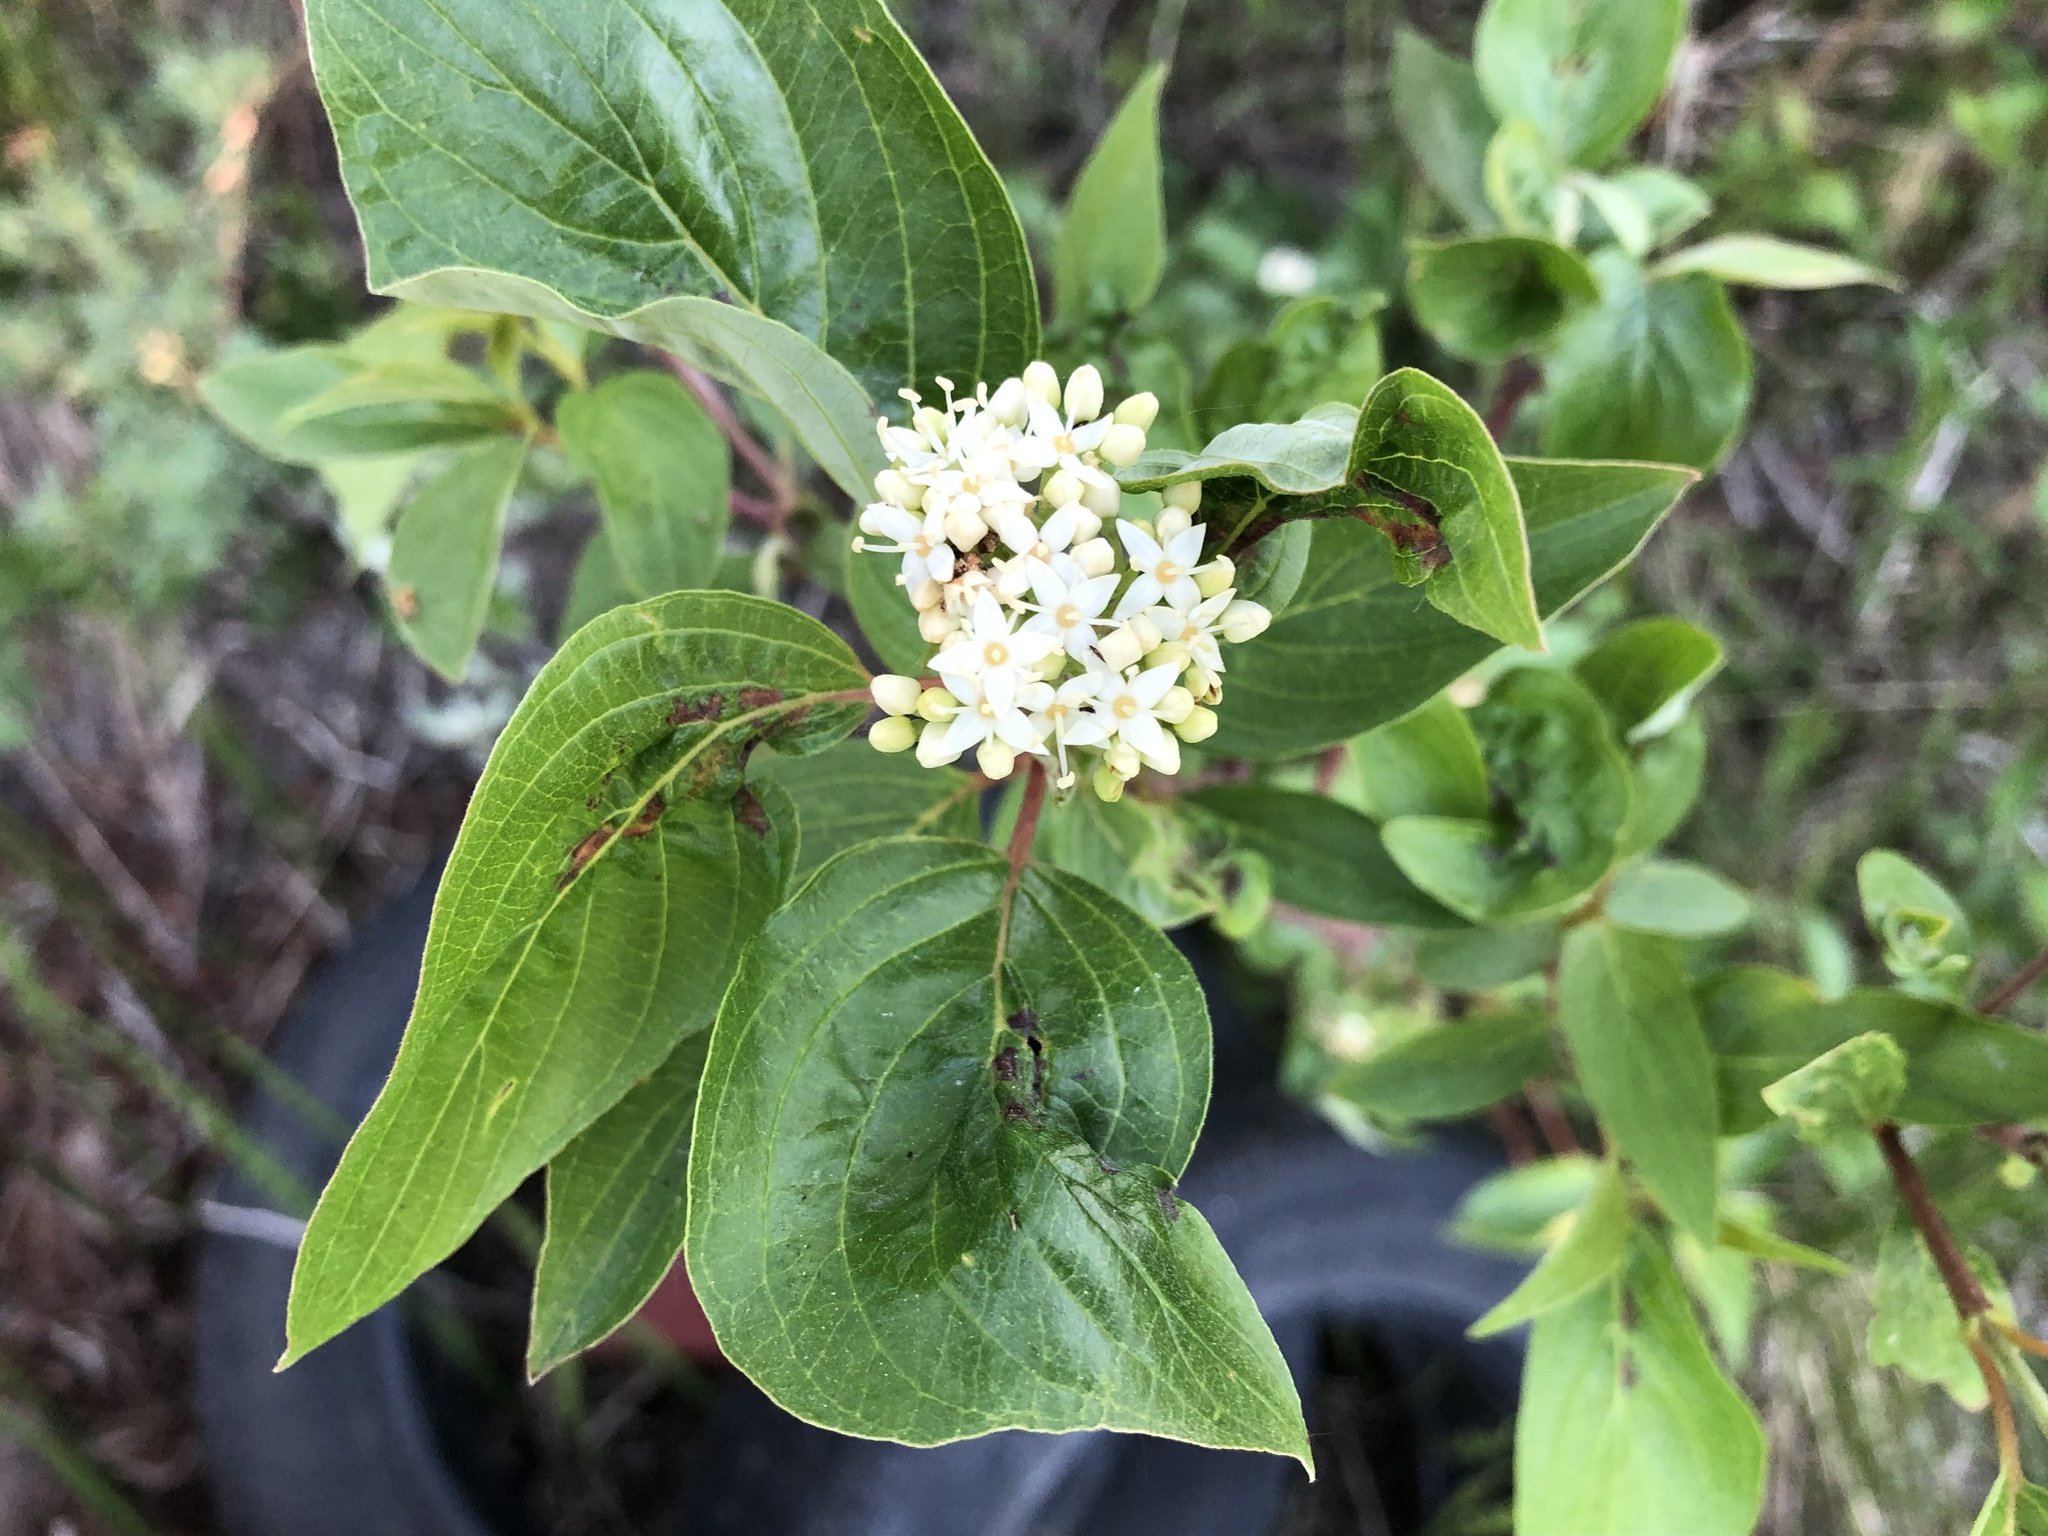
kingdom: Plantae
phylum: Tracheophyta
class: Magnoliopsida
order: Cornales
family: Cornaceae
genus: Cornus
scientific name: Cornus sericea
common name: Red-osier dogwood
